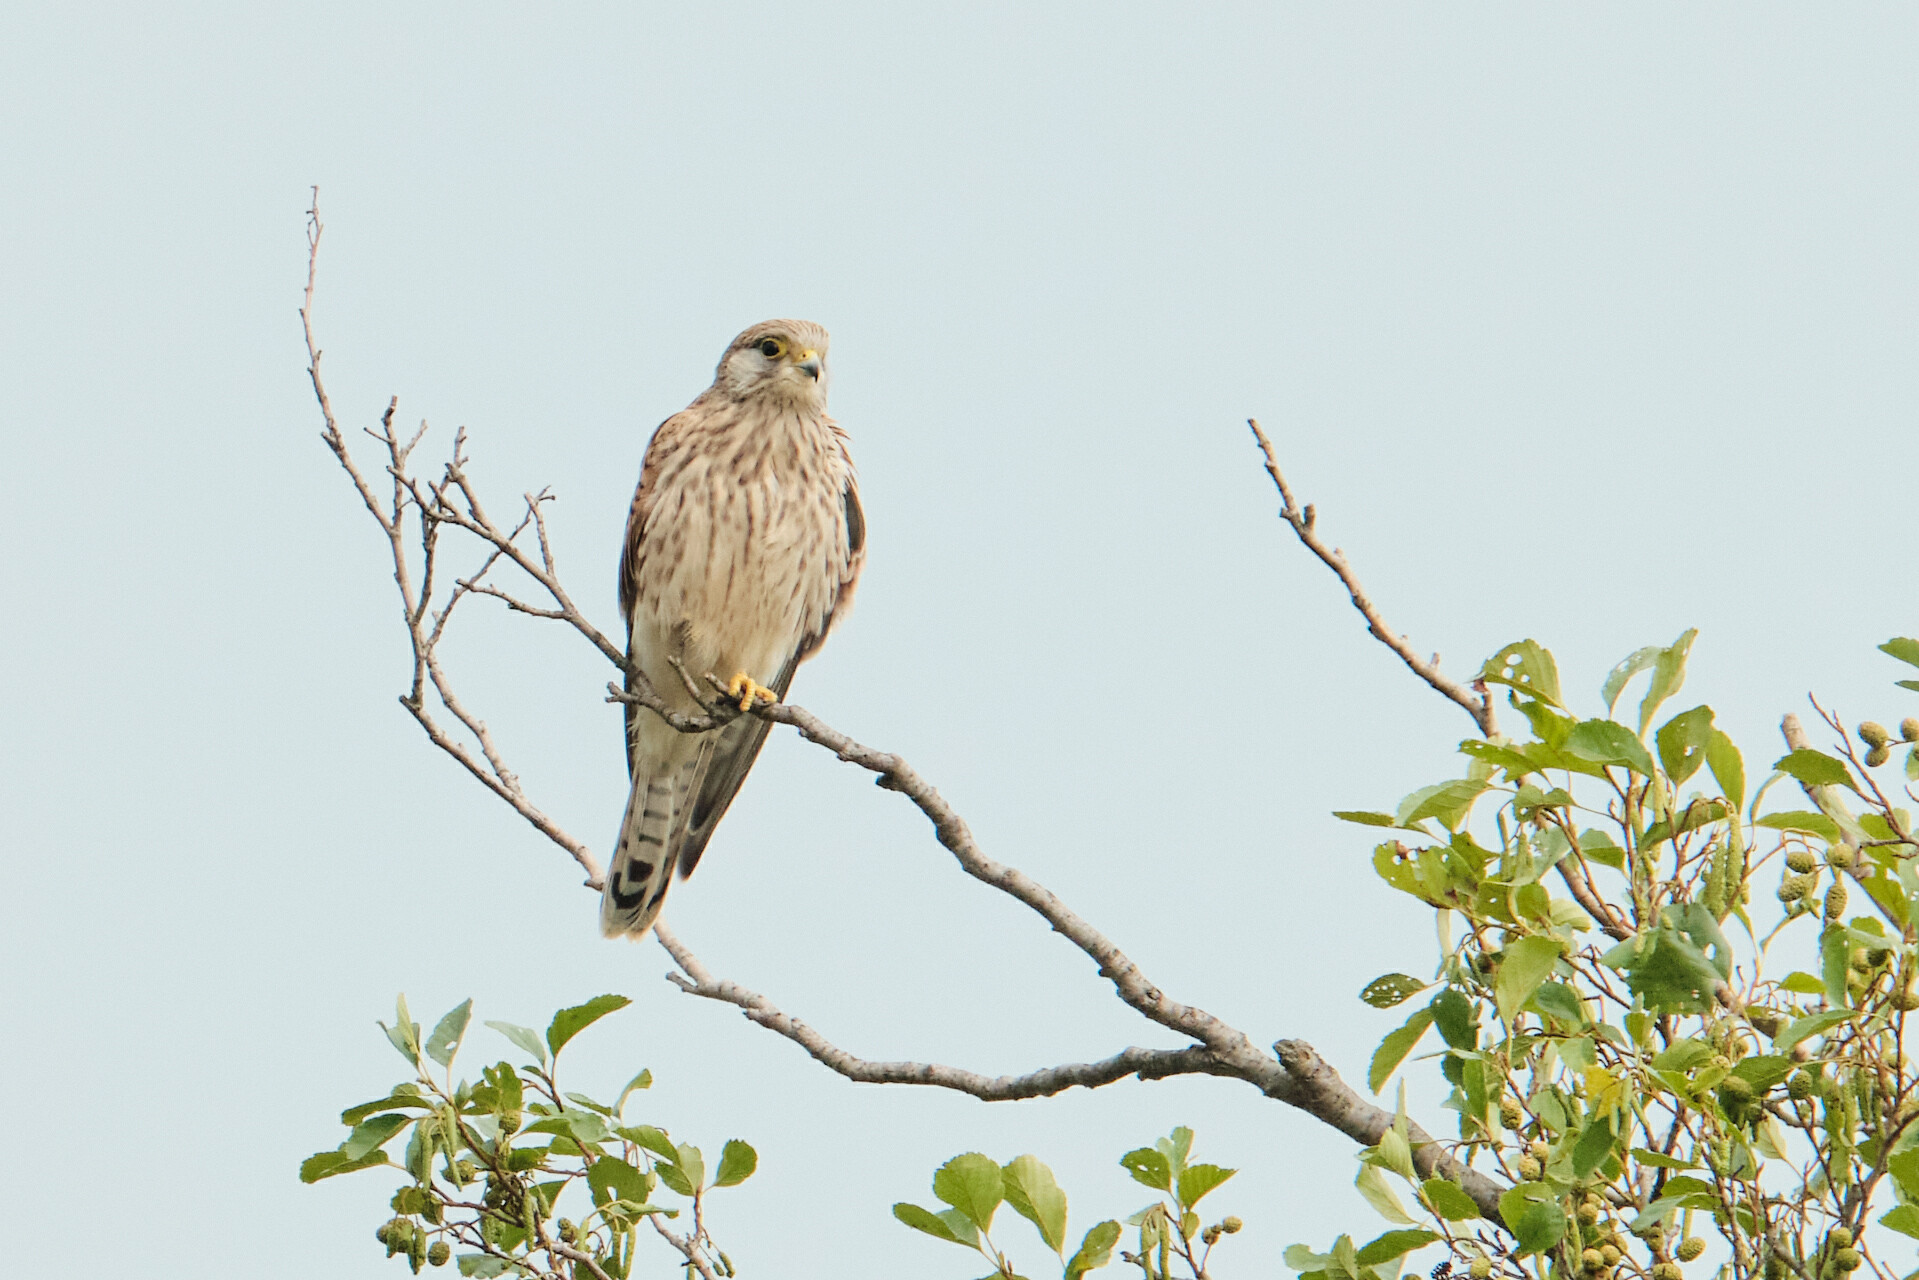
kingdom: Animalia
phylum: Chordata
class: Aves
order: Falconiformes
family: Falconidae
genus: Falco
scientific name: Falco tinnunculus
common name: Common kestrel
